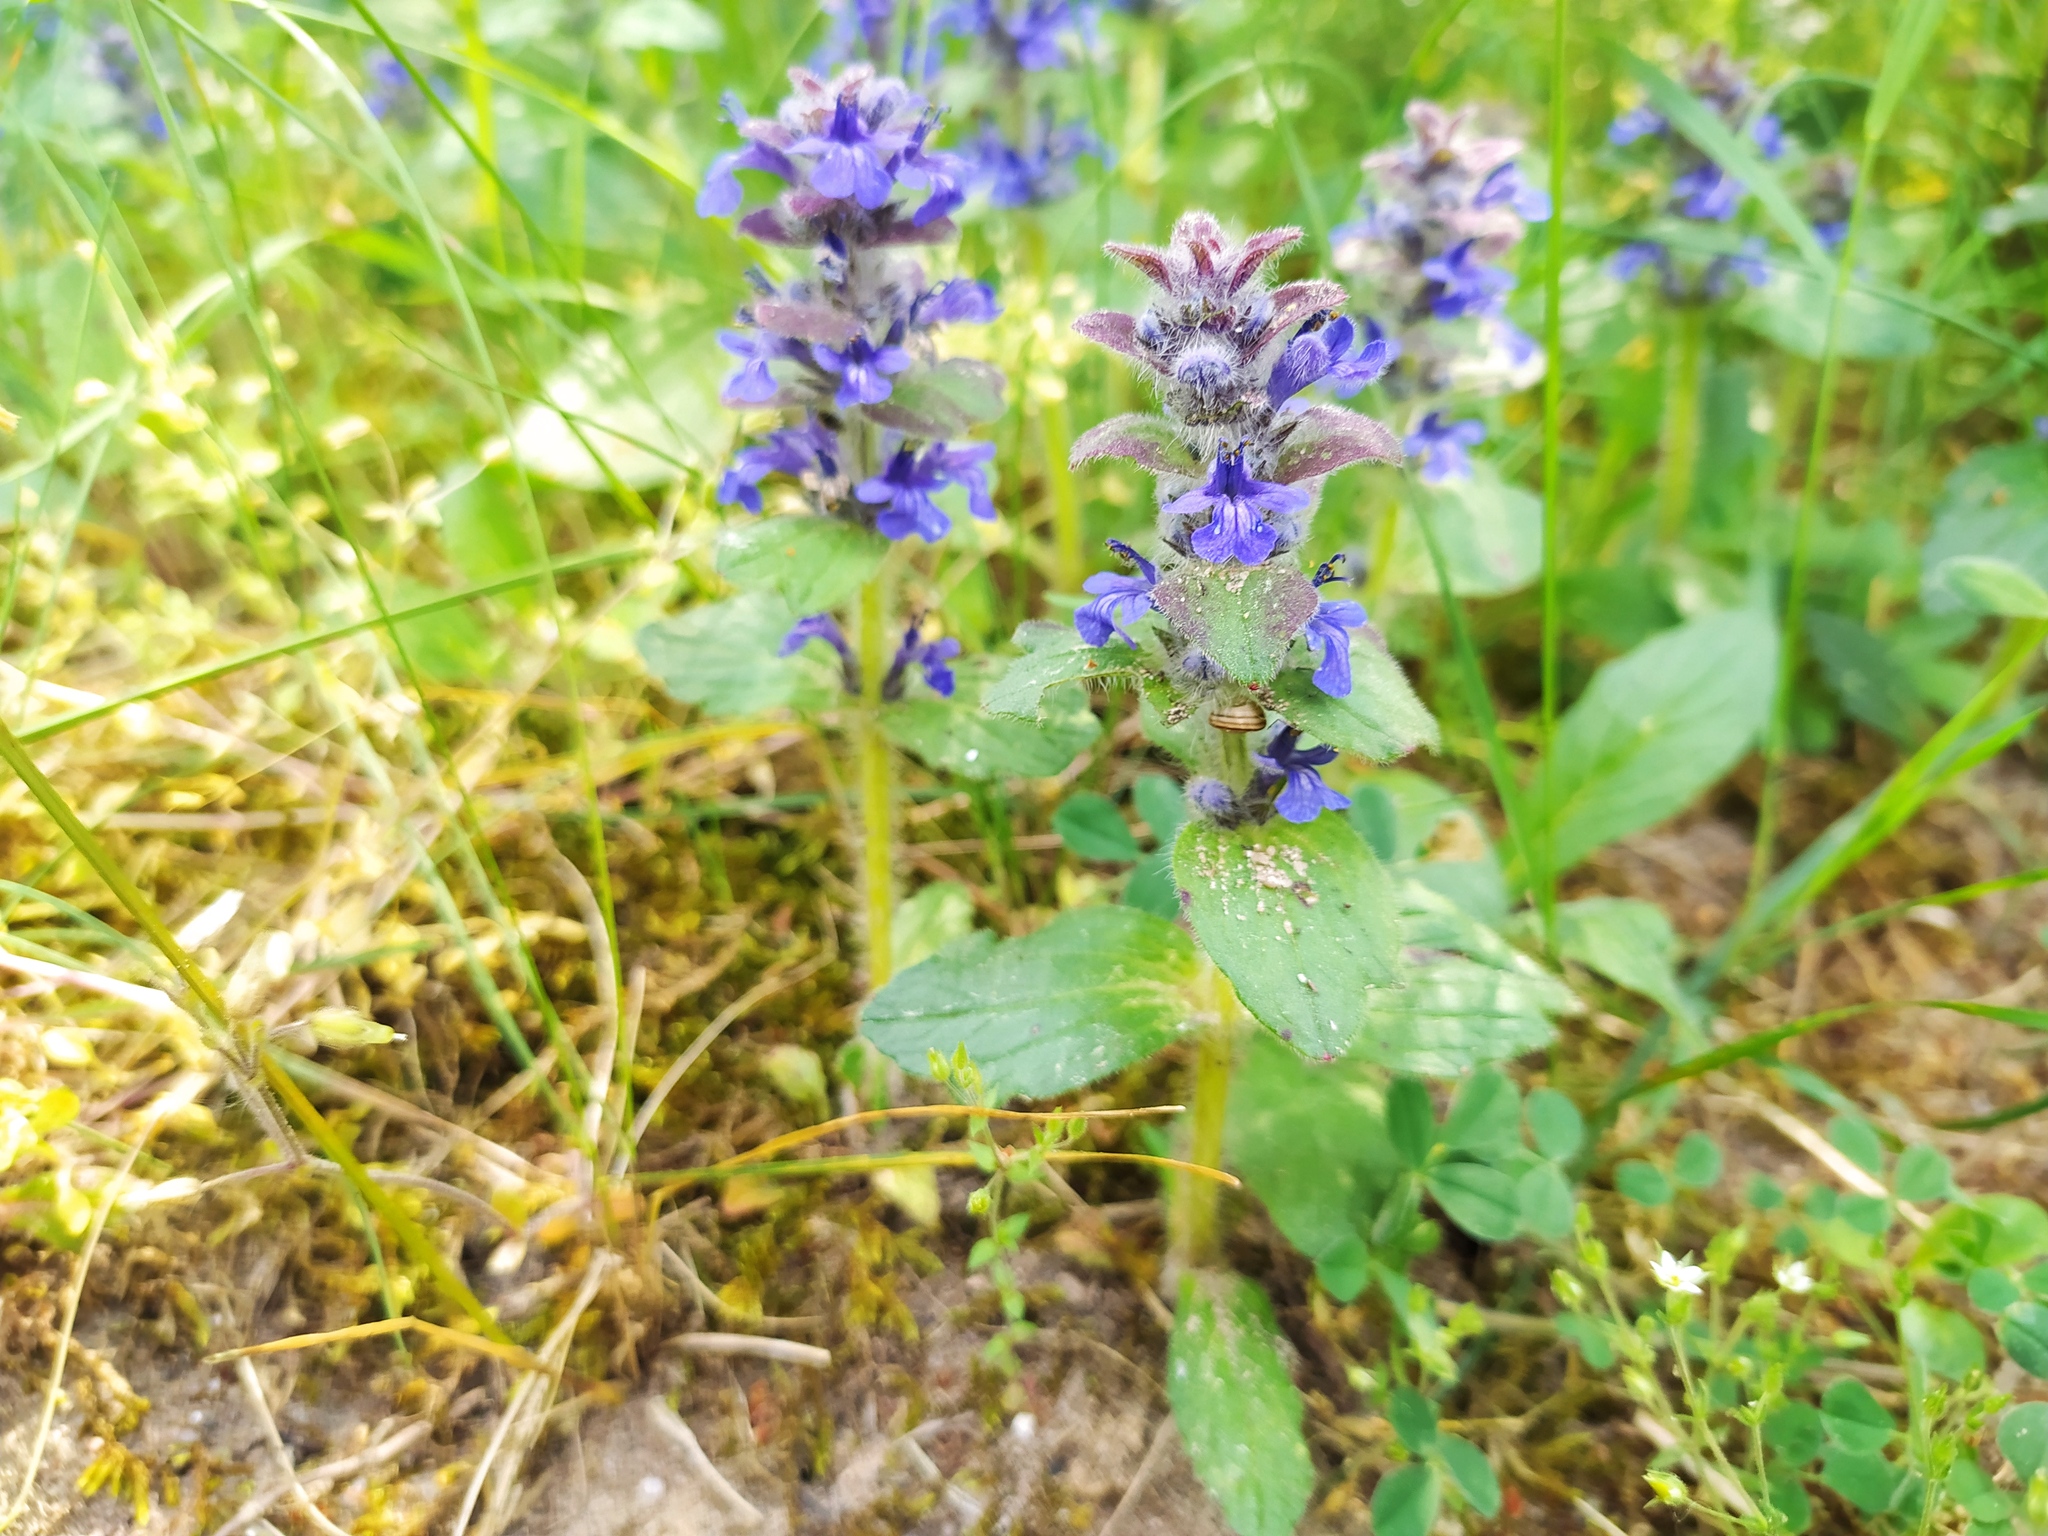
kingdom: Plantae
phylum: Tracheophyta
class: Magnoliopsida
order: Lamiales
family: Lamiaceae
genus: Ajuga
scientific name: Ajuga genevensis
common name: Blue bugle
